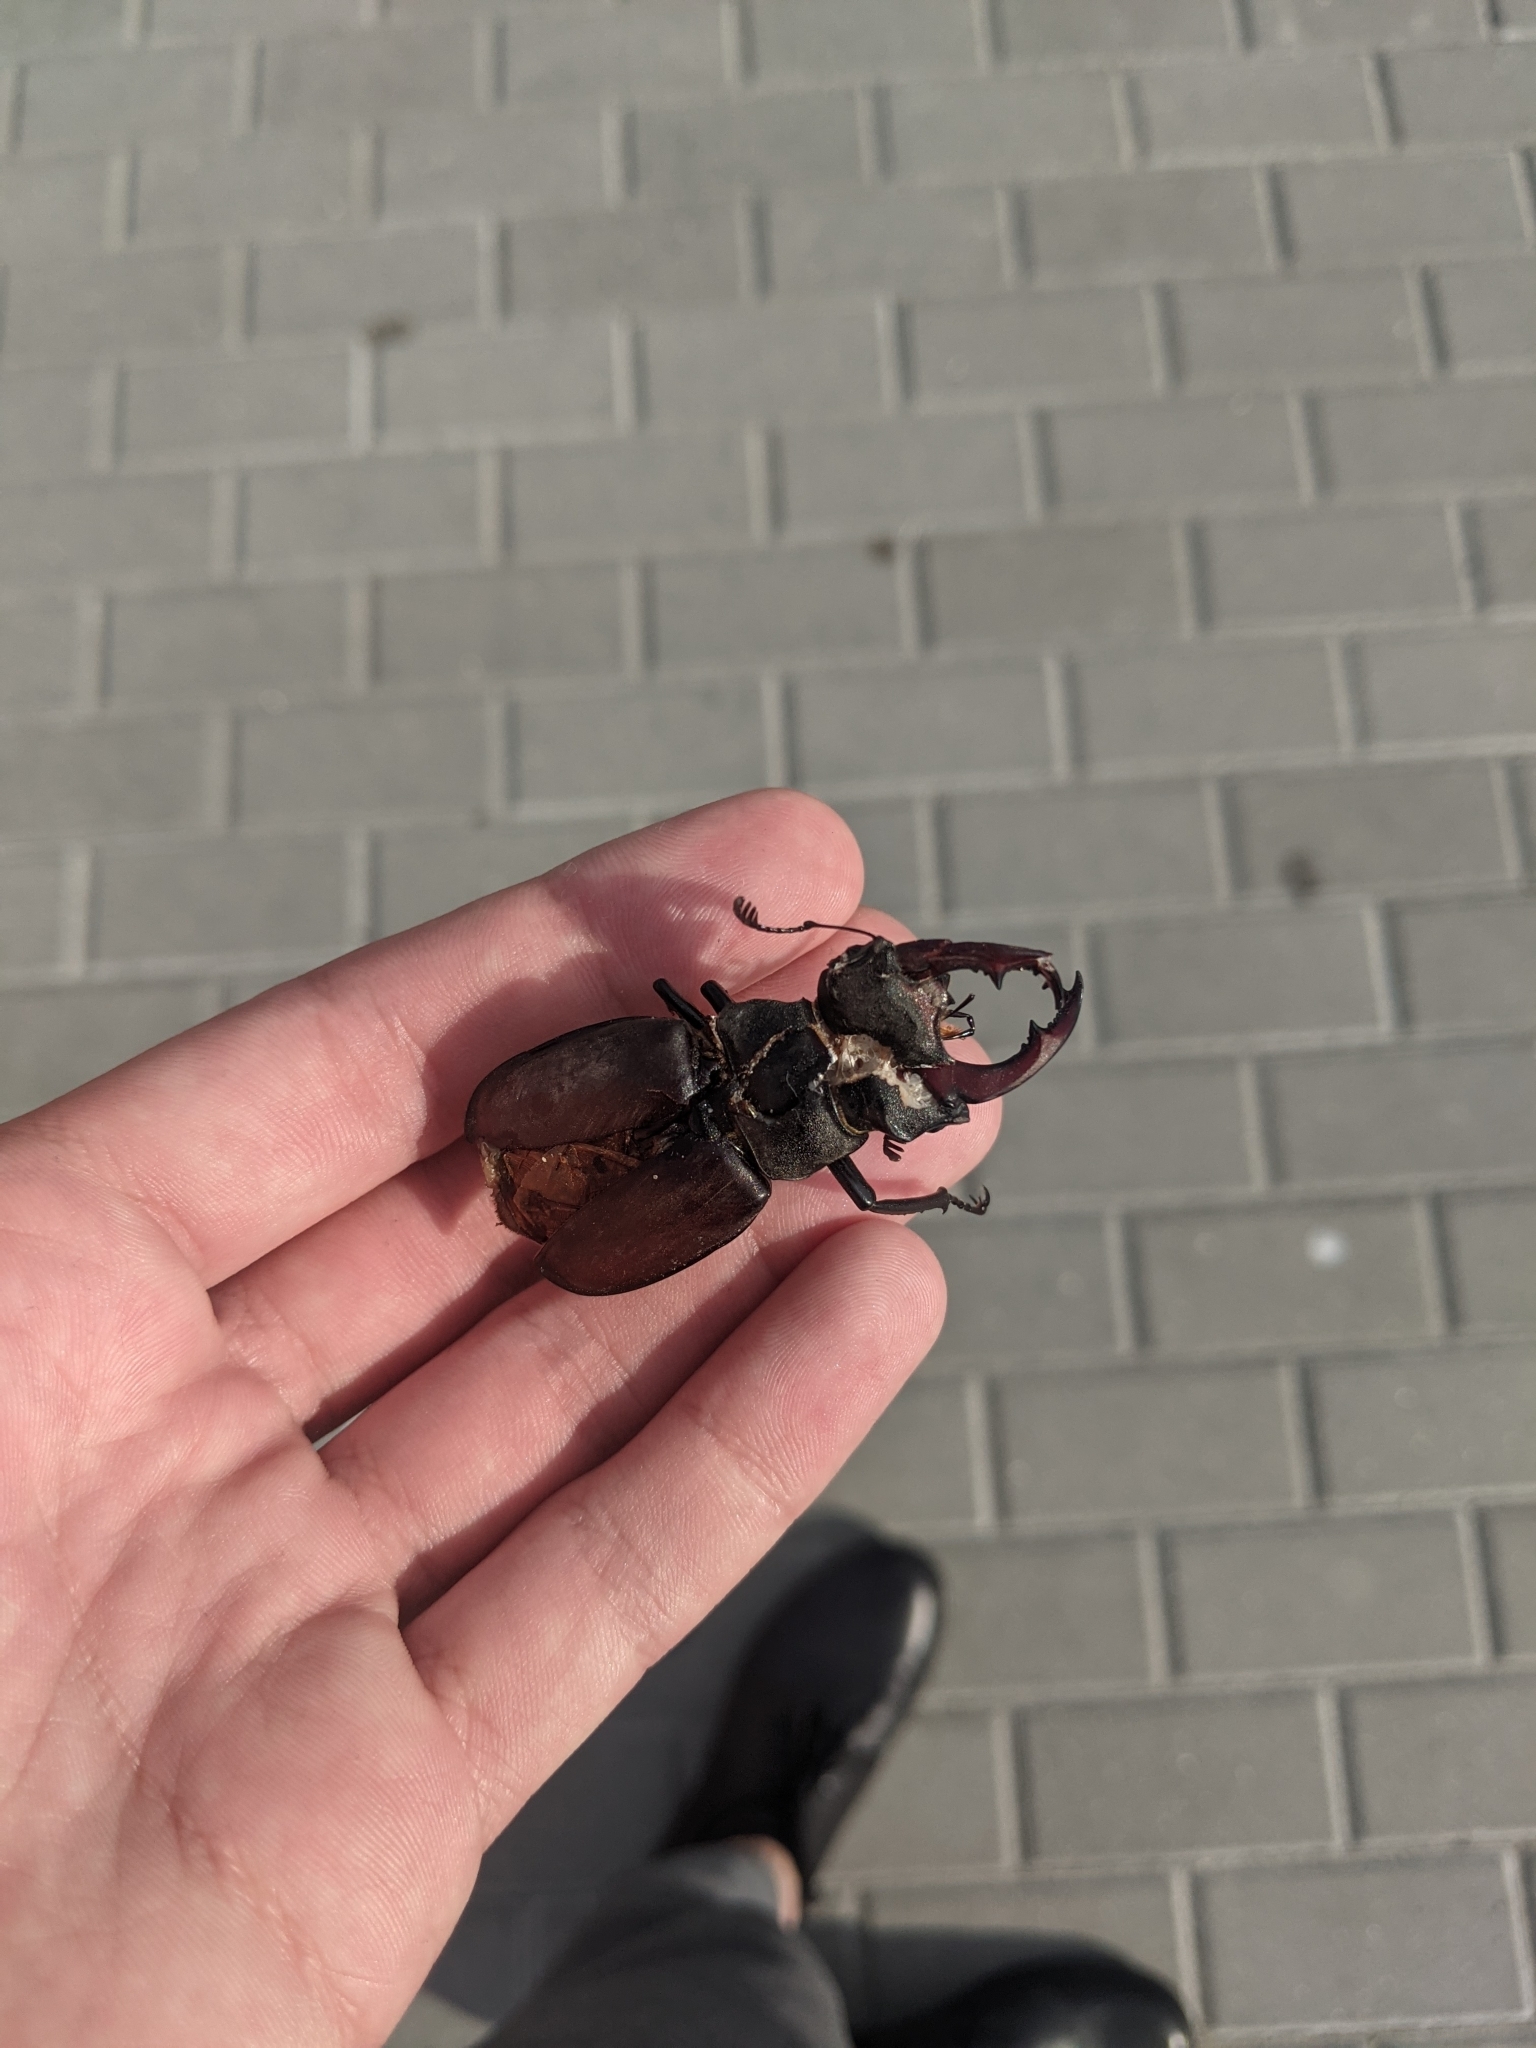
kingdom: Animalia
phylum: Arthropoda
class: Insecta
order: Coleoptera
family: Lucanidae
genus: Lucanus
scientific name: Lucanus cervus
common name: Stag beetle
